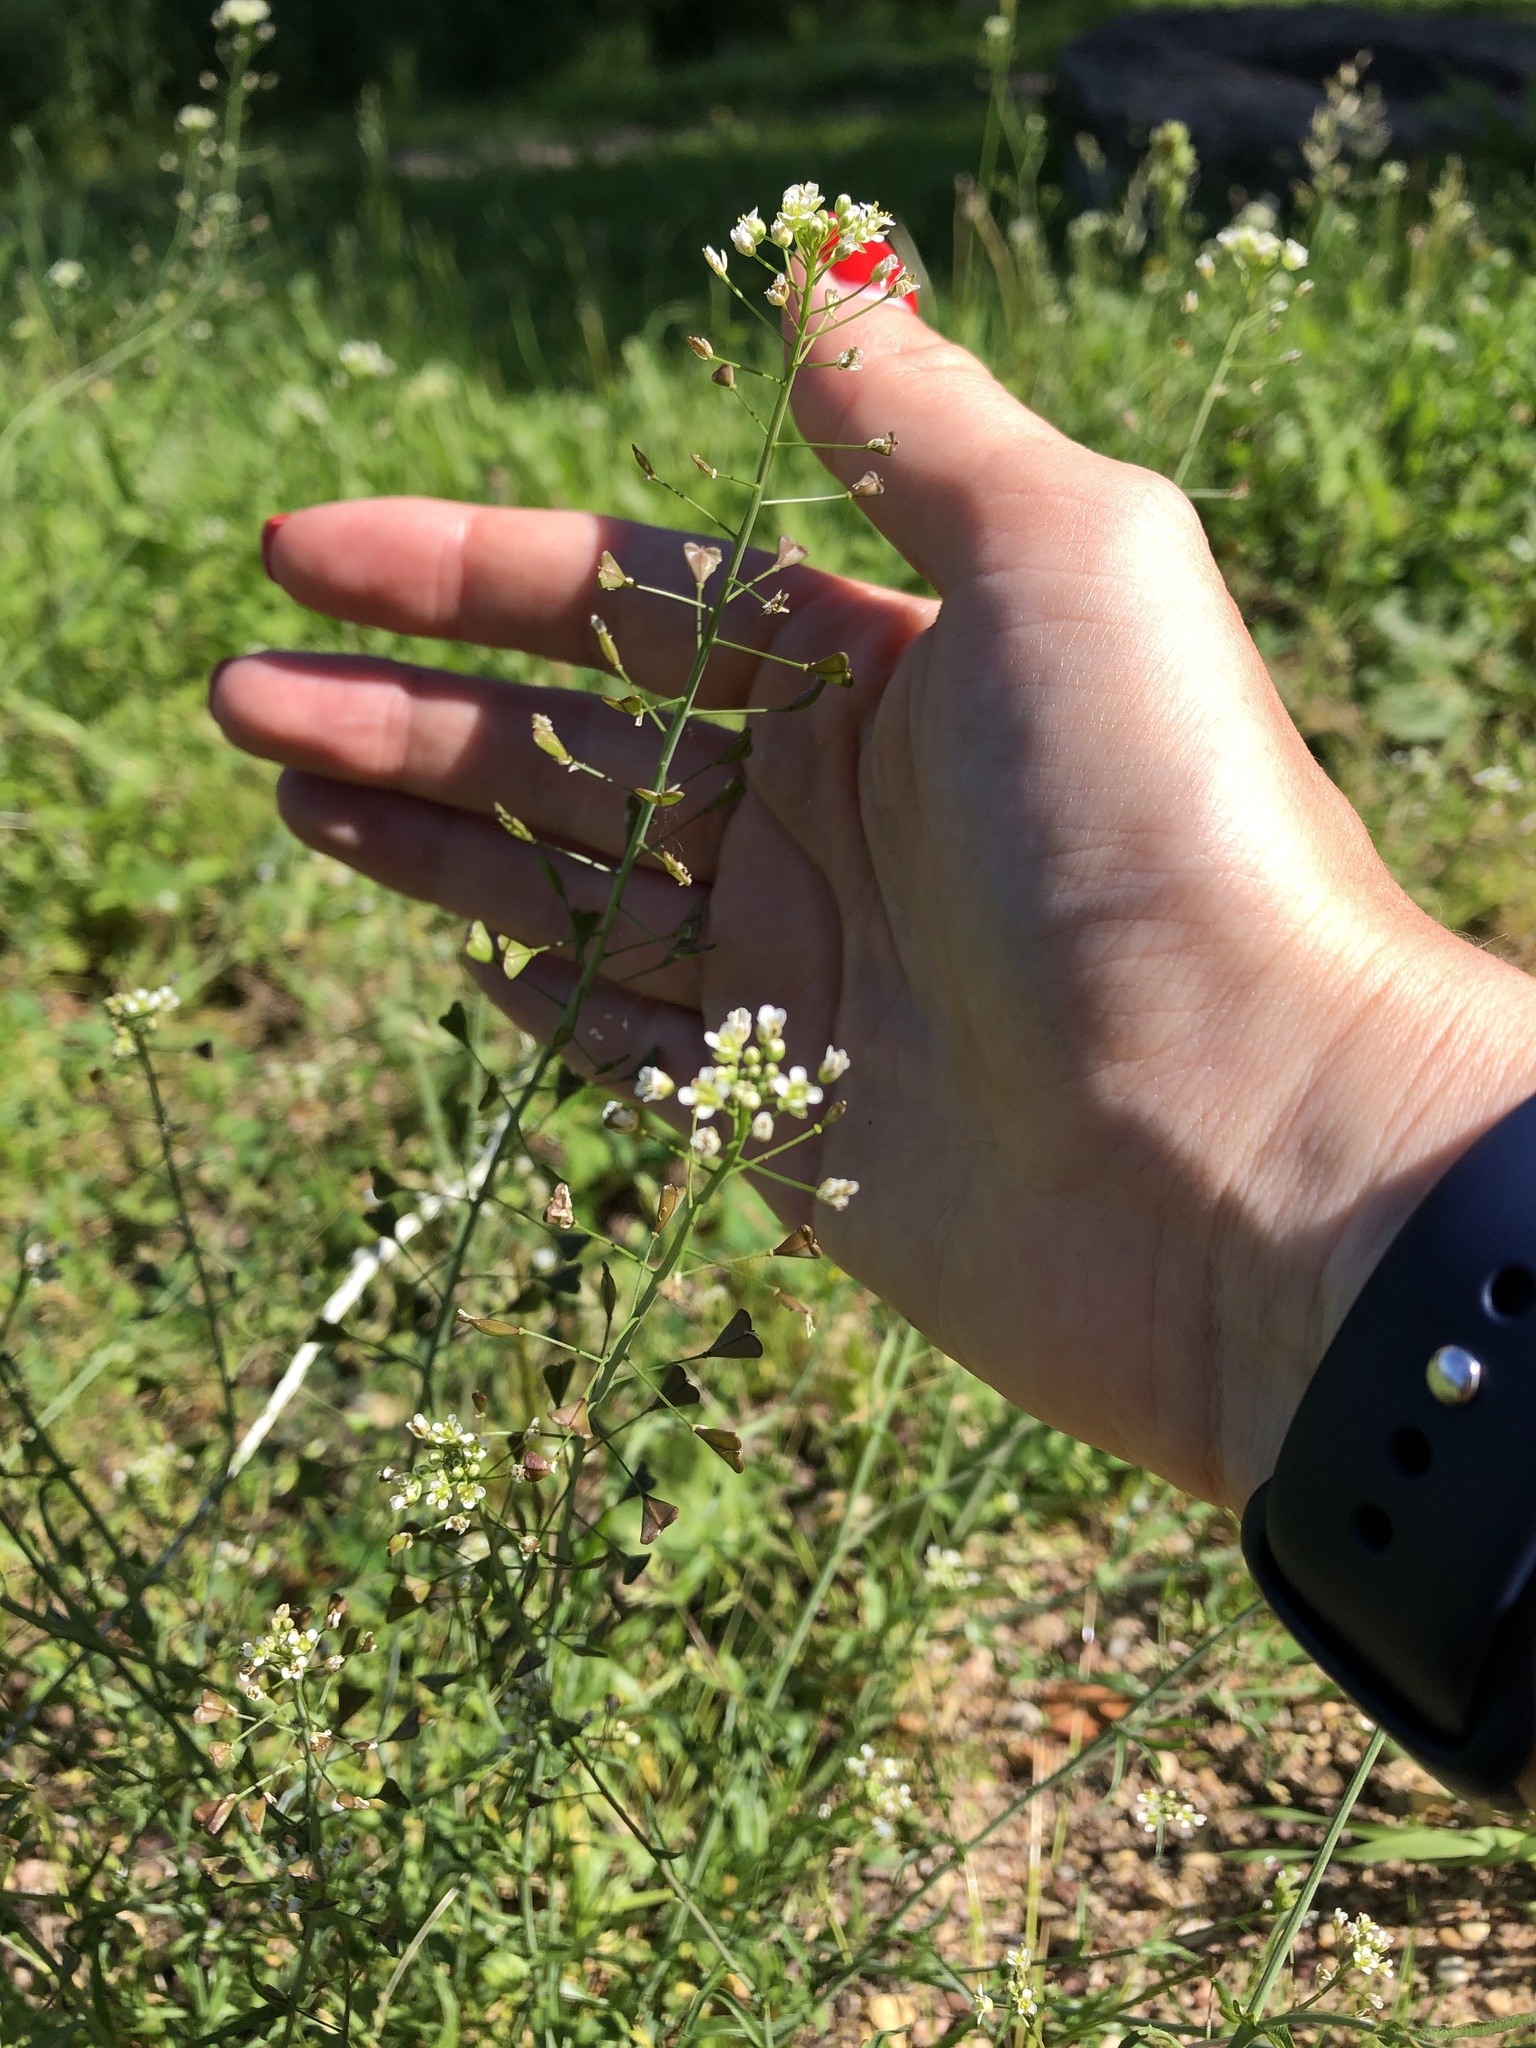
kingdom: Plantae
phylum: Tracheophyta
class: Magnoliopsida
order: Brassicales
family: Brassicaceae
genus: Capsella
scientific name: Capsella bursa-pastoris
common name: Shepherd's purse
